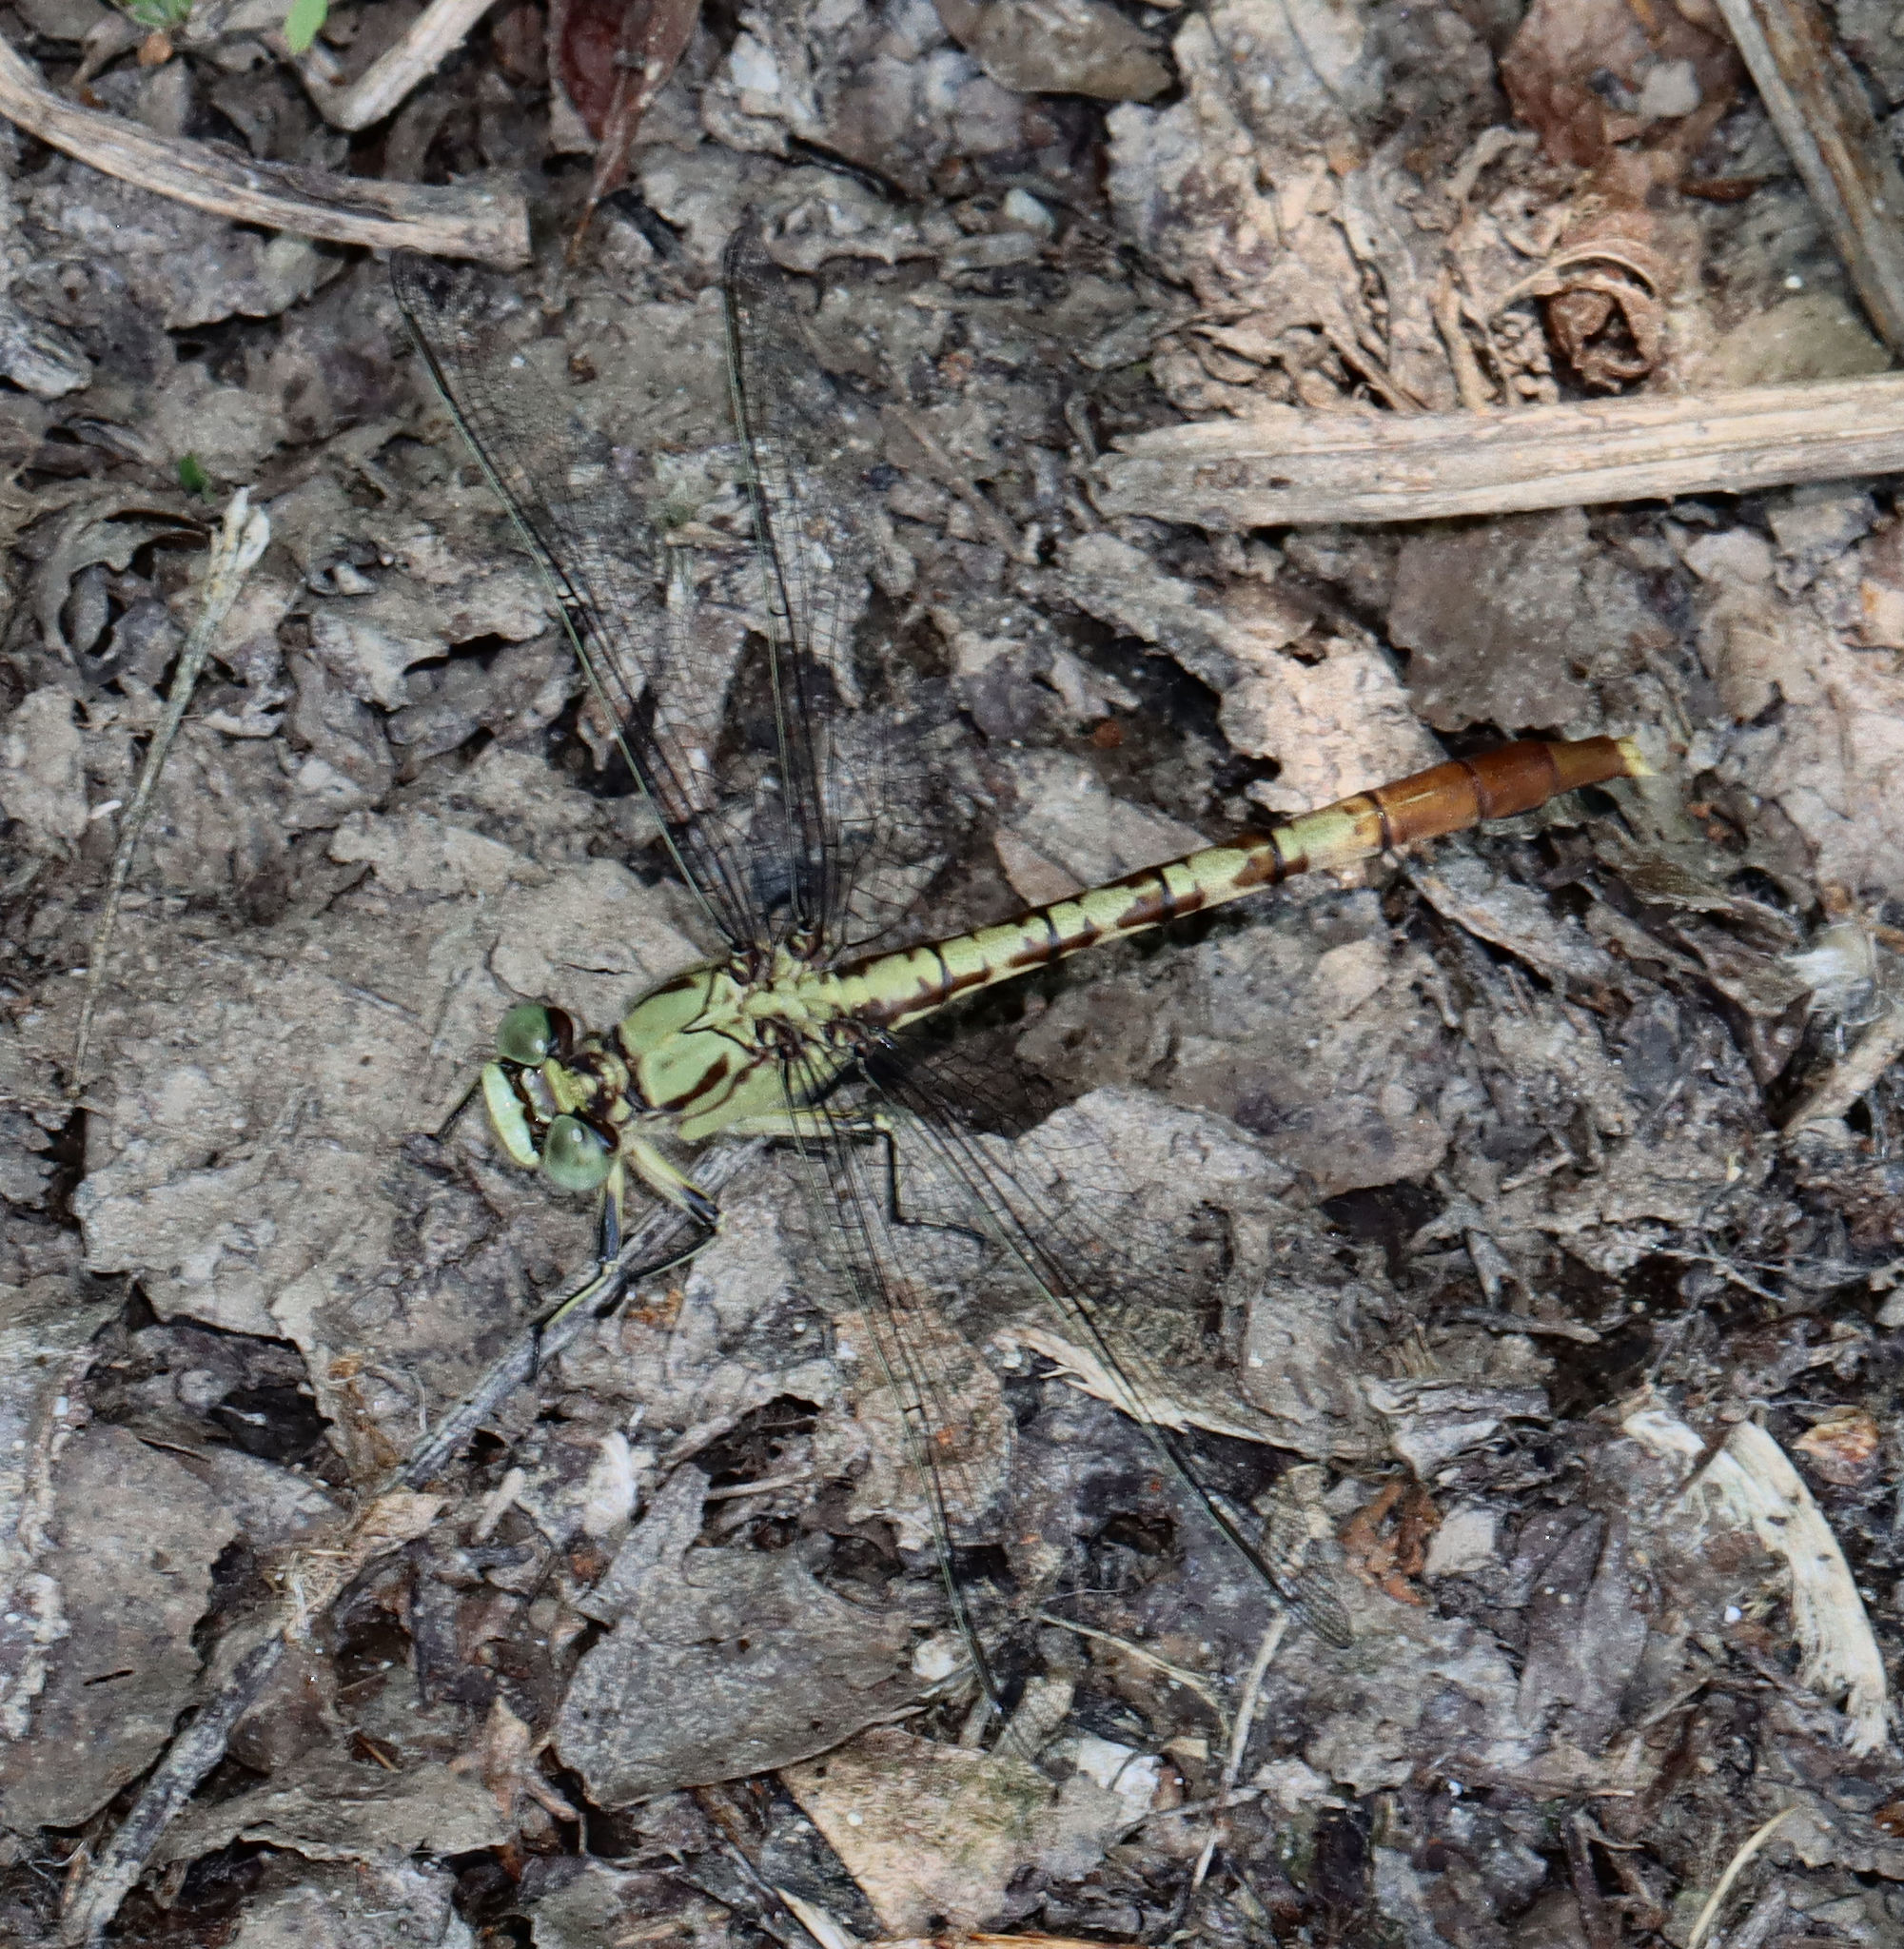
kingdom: Animalia
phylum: Arthropoda
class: Insecta
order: Odonata
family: Gomphidae
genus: Arigomphus
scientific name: Arigomphus submedianus
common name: Jade clubtail
